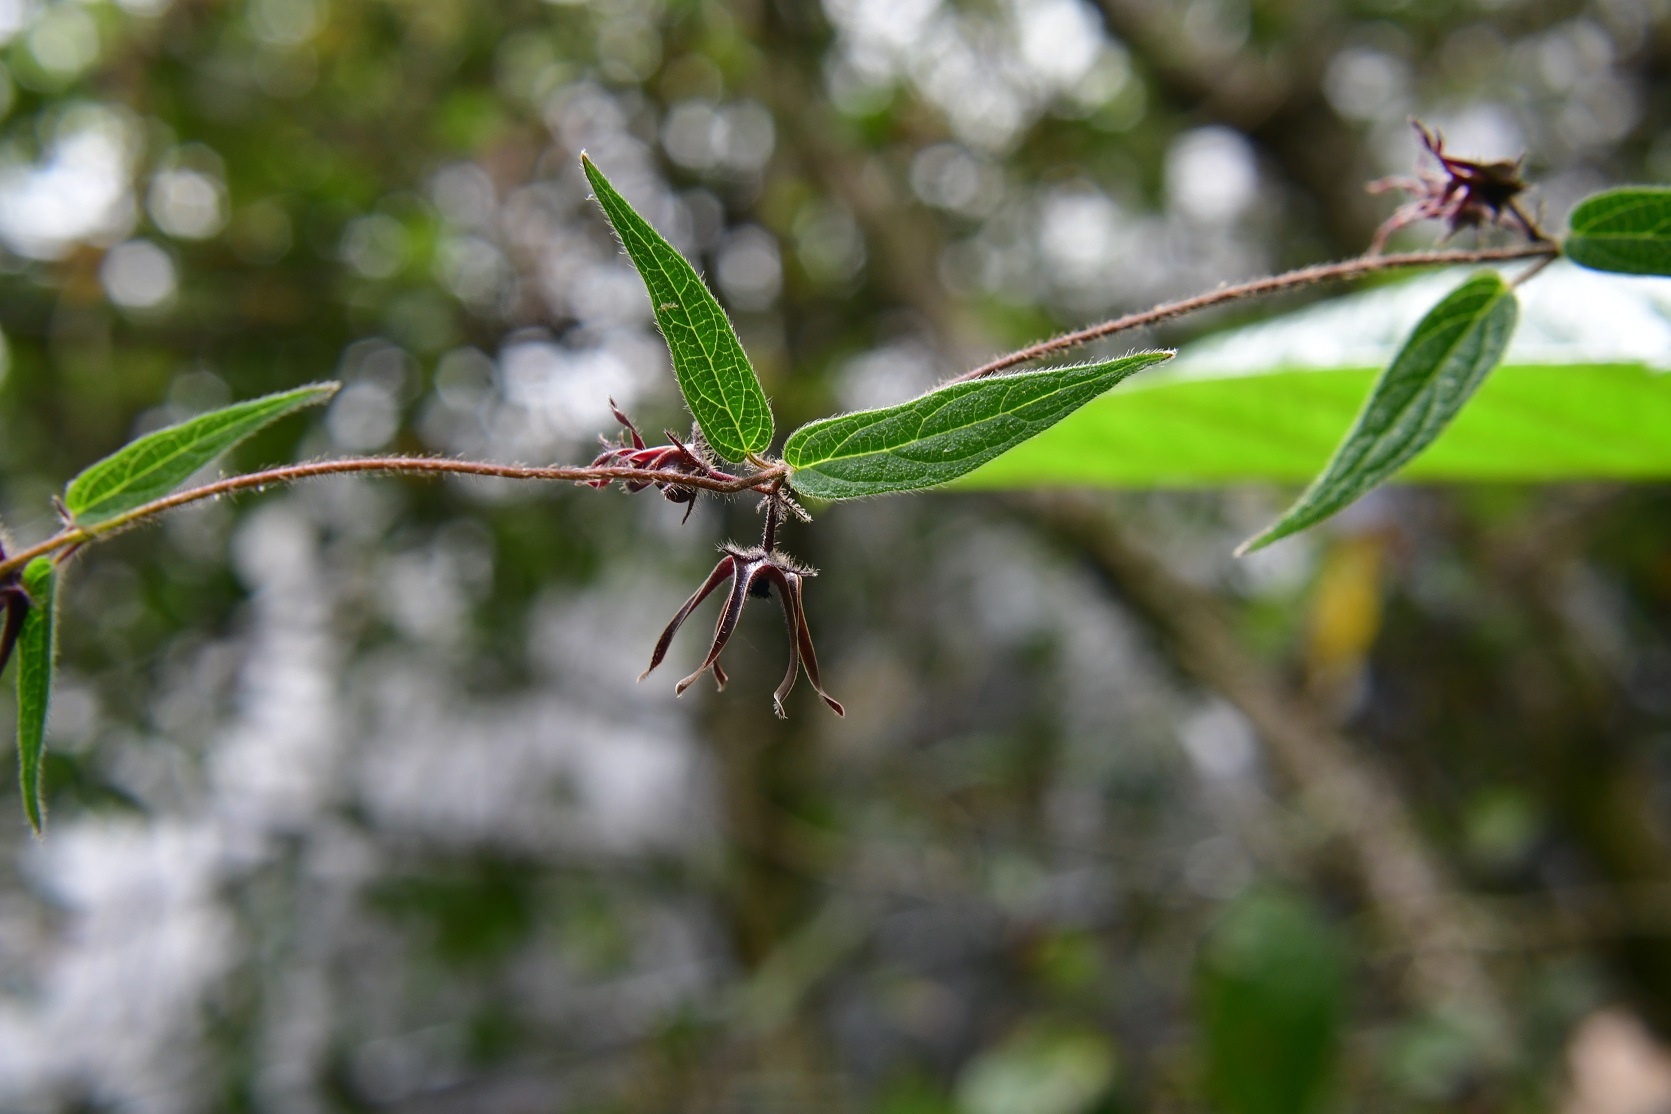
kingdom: Plantae
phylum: Tracheophyta
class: Magnoliopsida
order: Gentianales
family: Apocynaceae
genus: Matelea
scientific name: Matelea medusae
